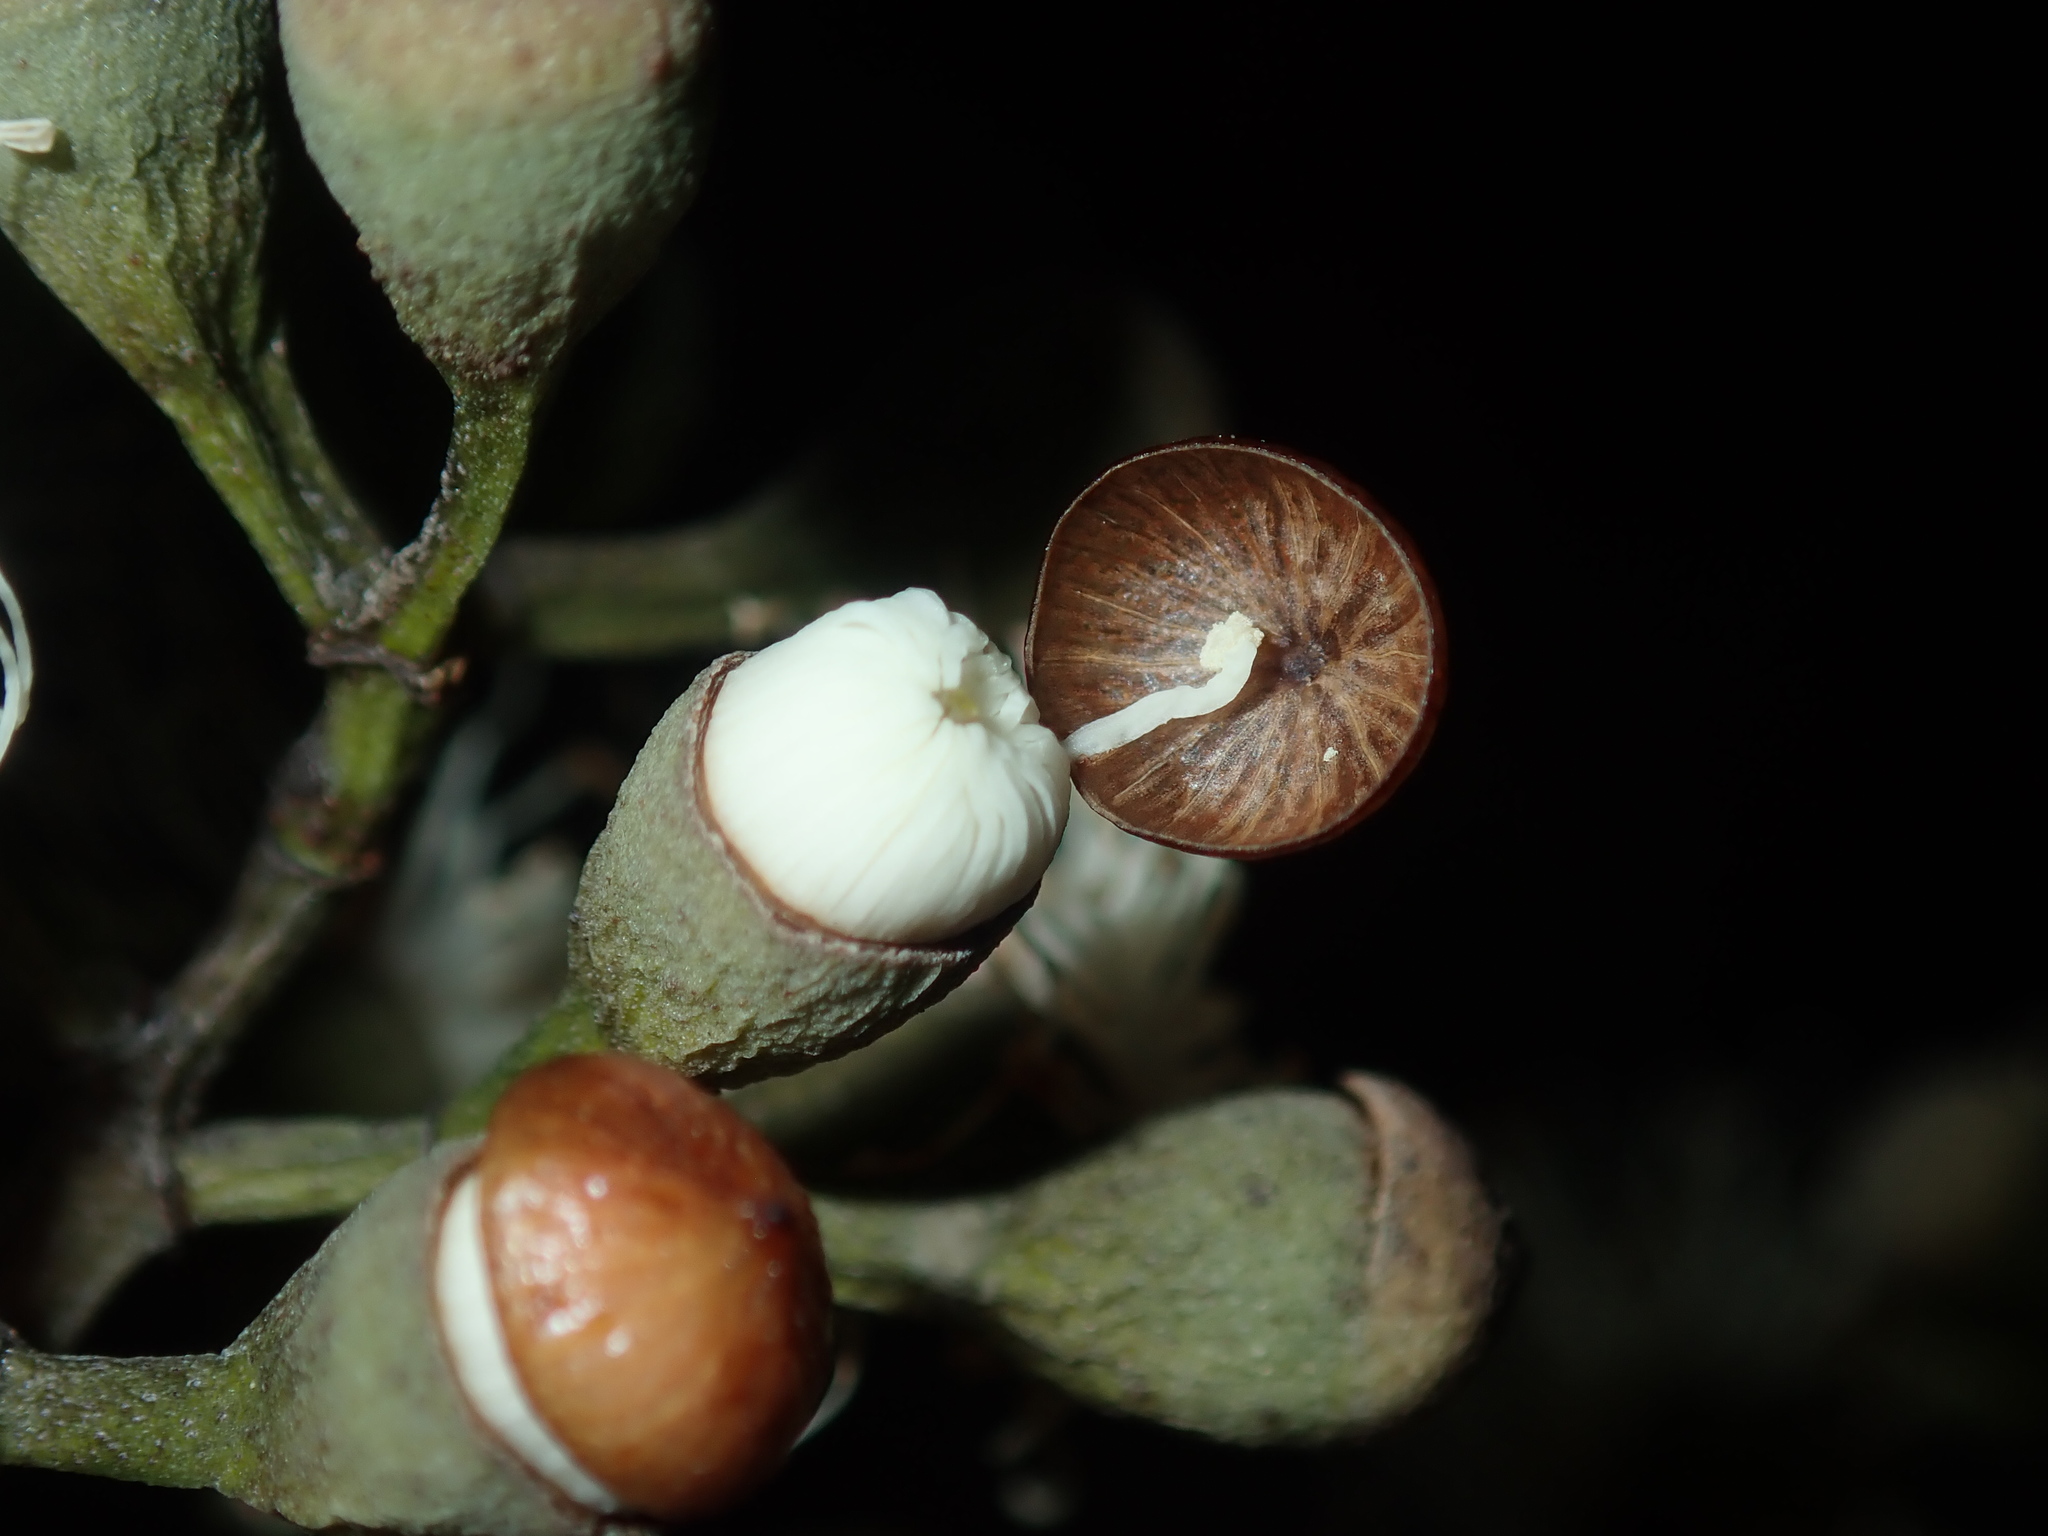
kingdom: Plantae
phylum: Tracheophyta
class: Magnoliopsida
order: Myrtales
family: Myrtaceae
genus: Corymbia
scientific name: Corymbia citriodora
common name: Lemonscented gum
